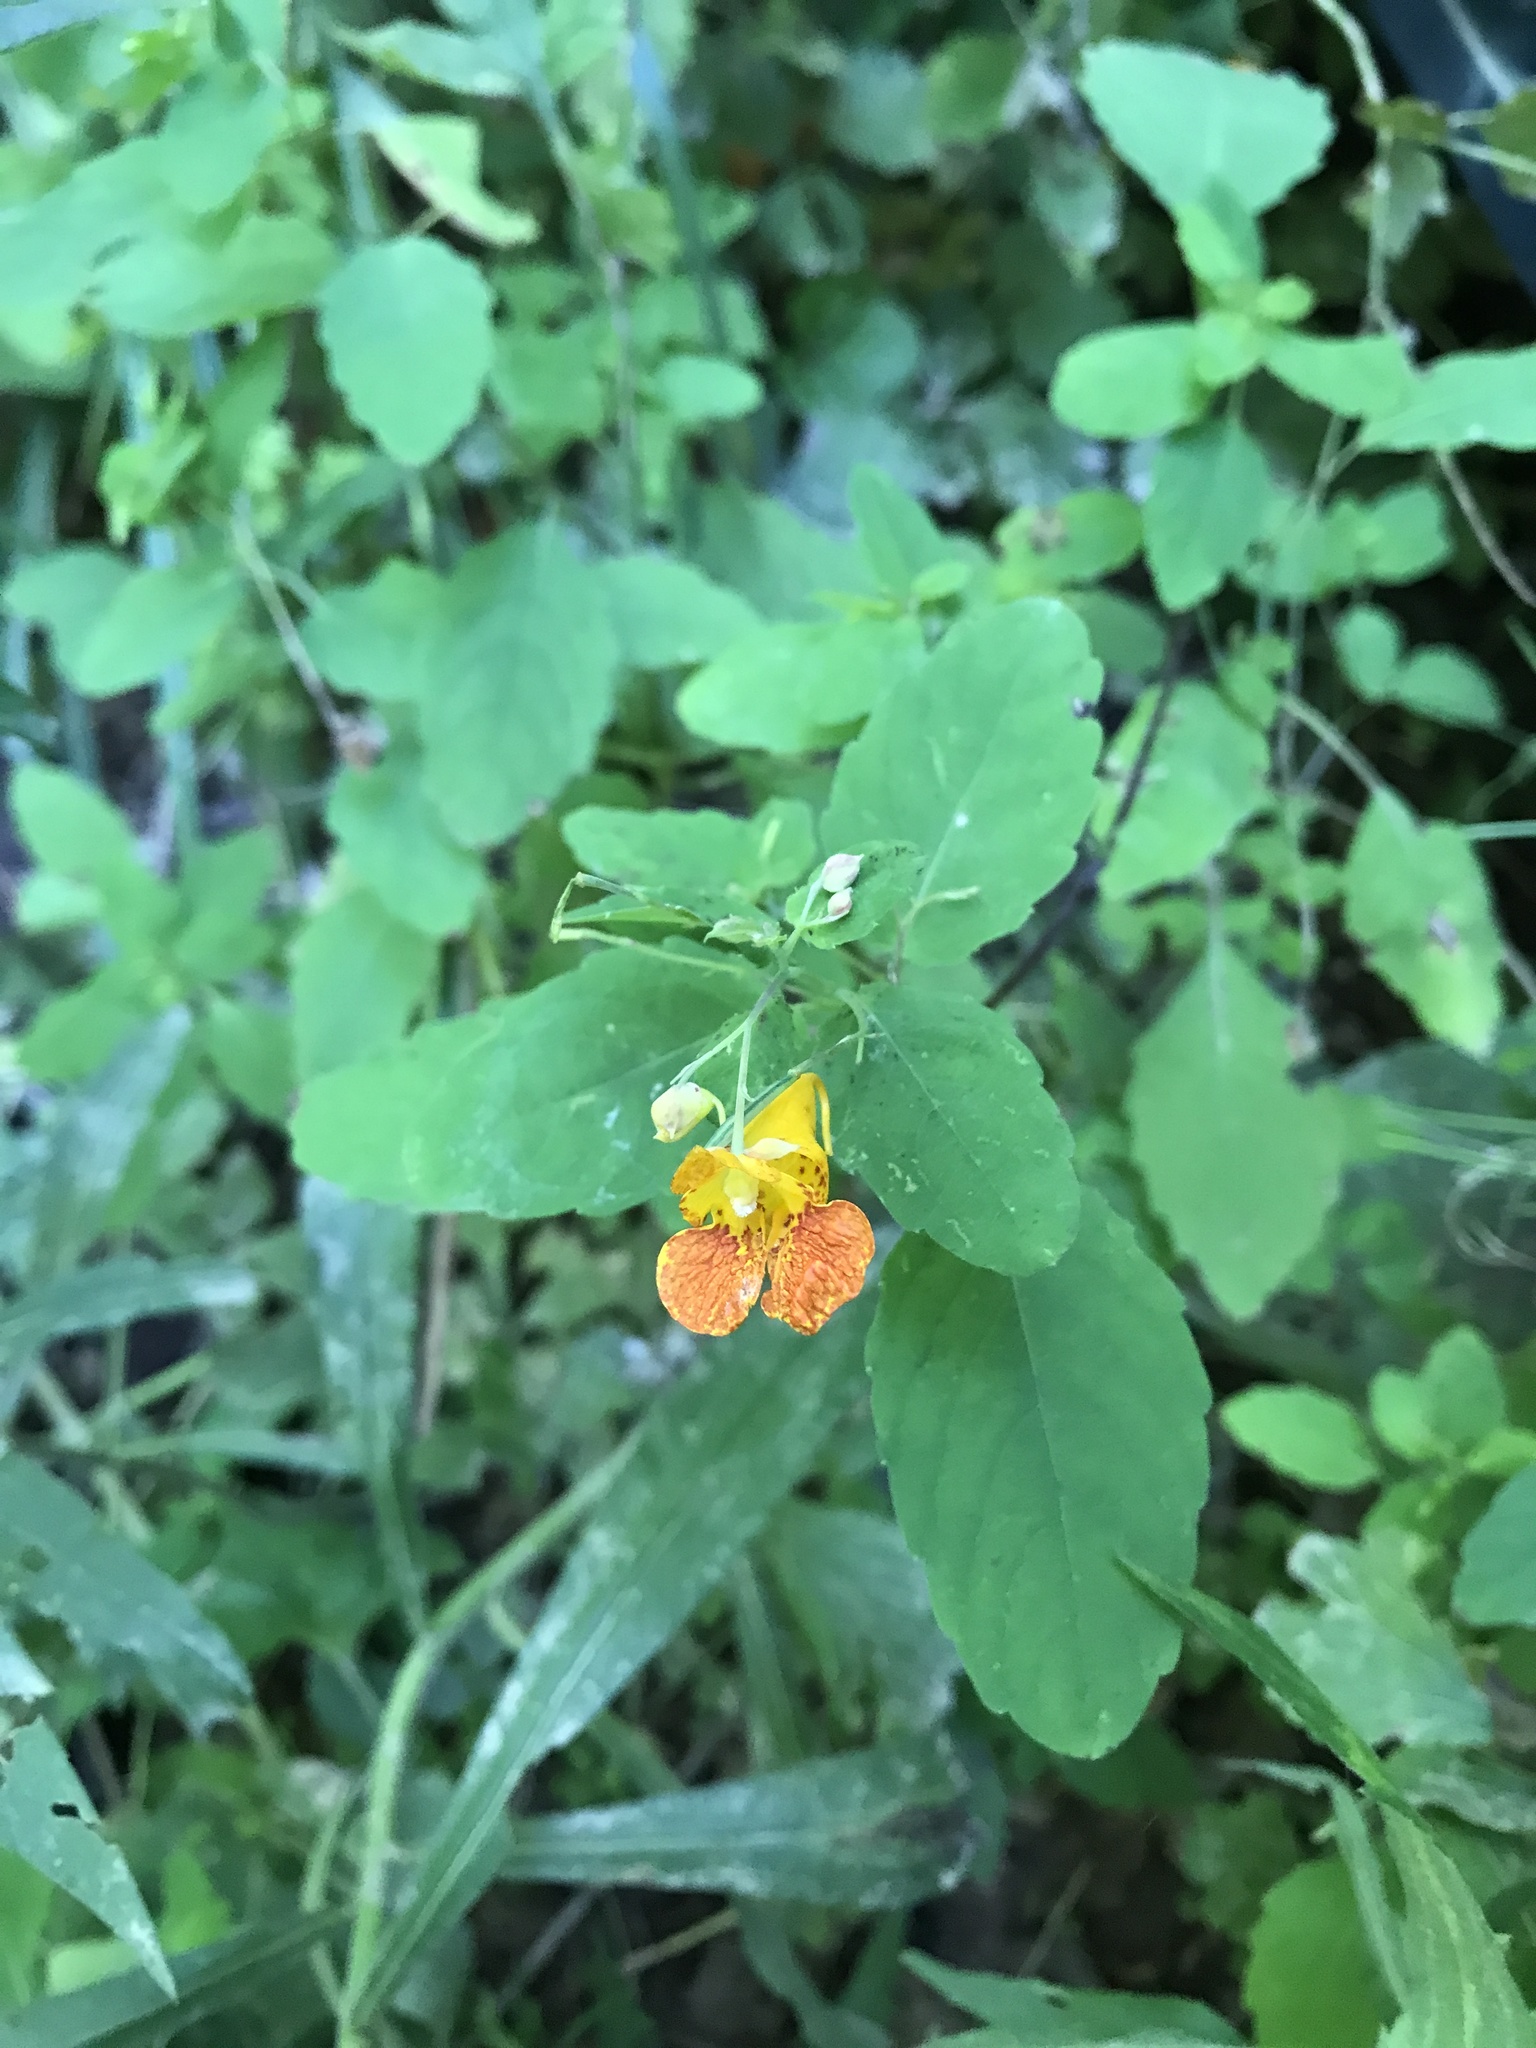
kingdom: Plantae
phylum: Tracheophyta
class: Magnoliopsida
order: Ericales
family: Balsaminaceae
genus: Impatiens
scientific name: Impatiens capensis
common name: Orange balsam
